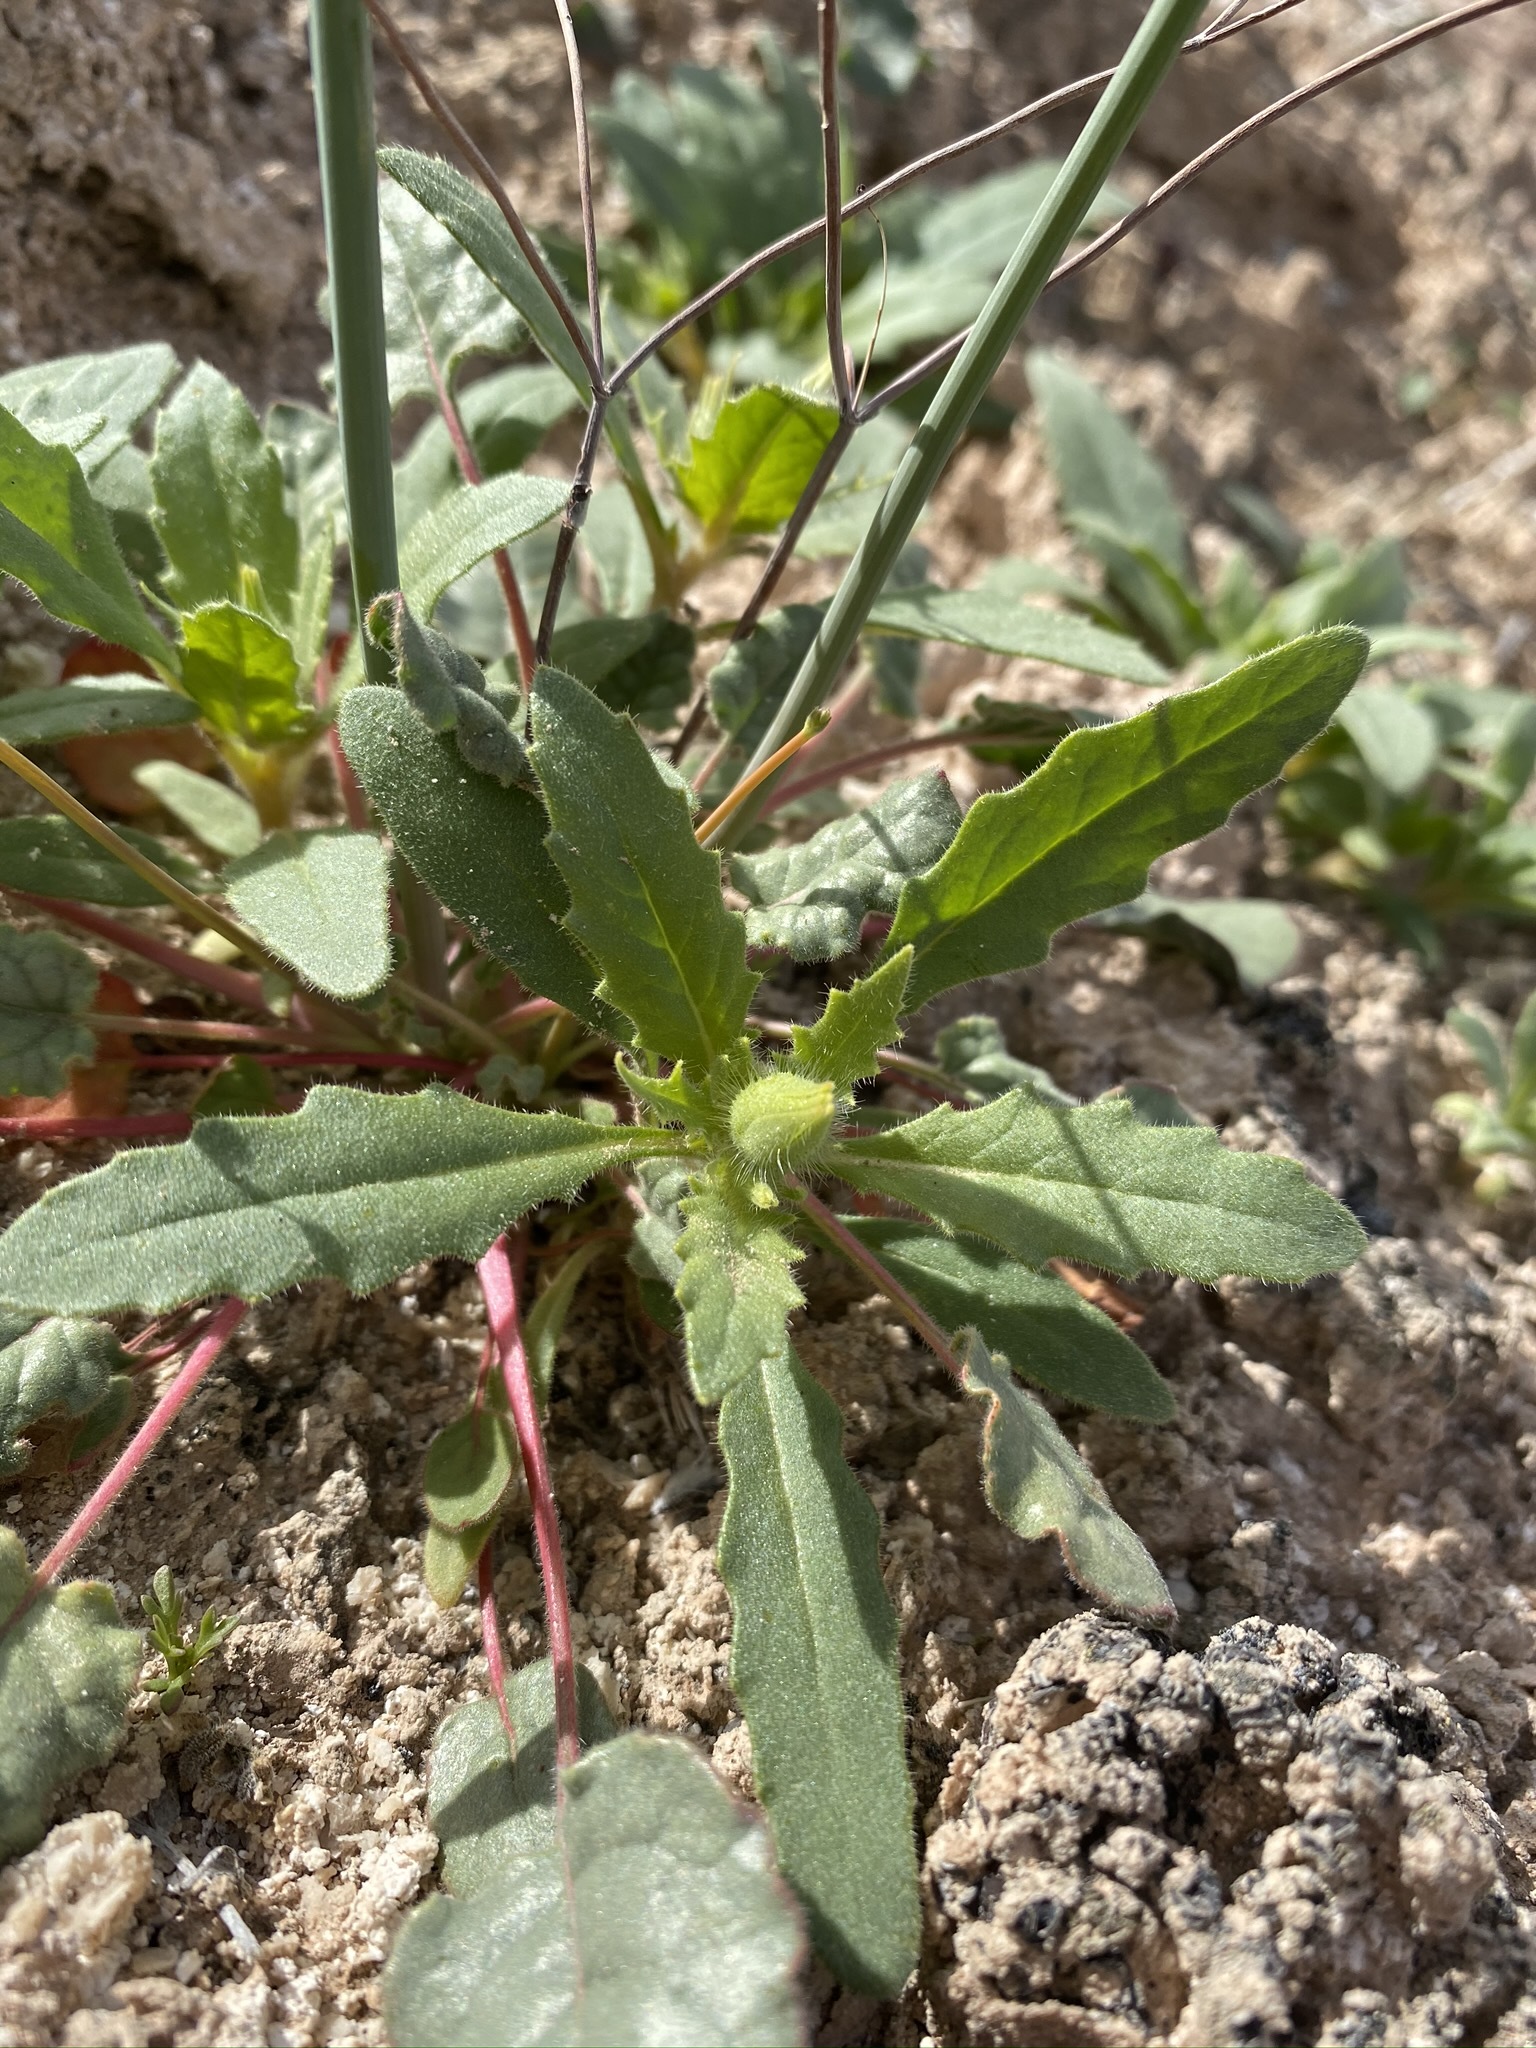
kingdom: Plantae
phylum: Tracheophyta
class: Magnoliopsida
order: Cornales
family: Loasaceae
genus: Mentzelia
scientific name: Mentzelia tricuspis
